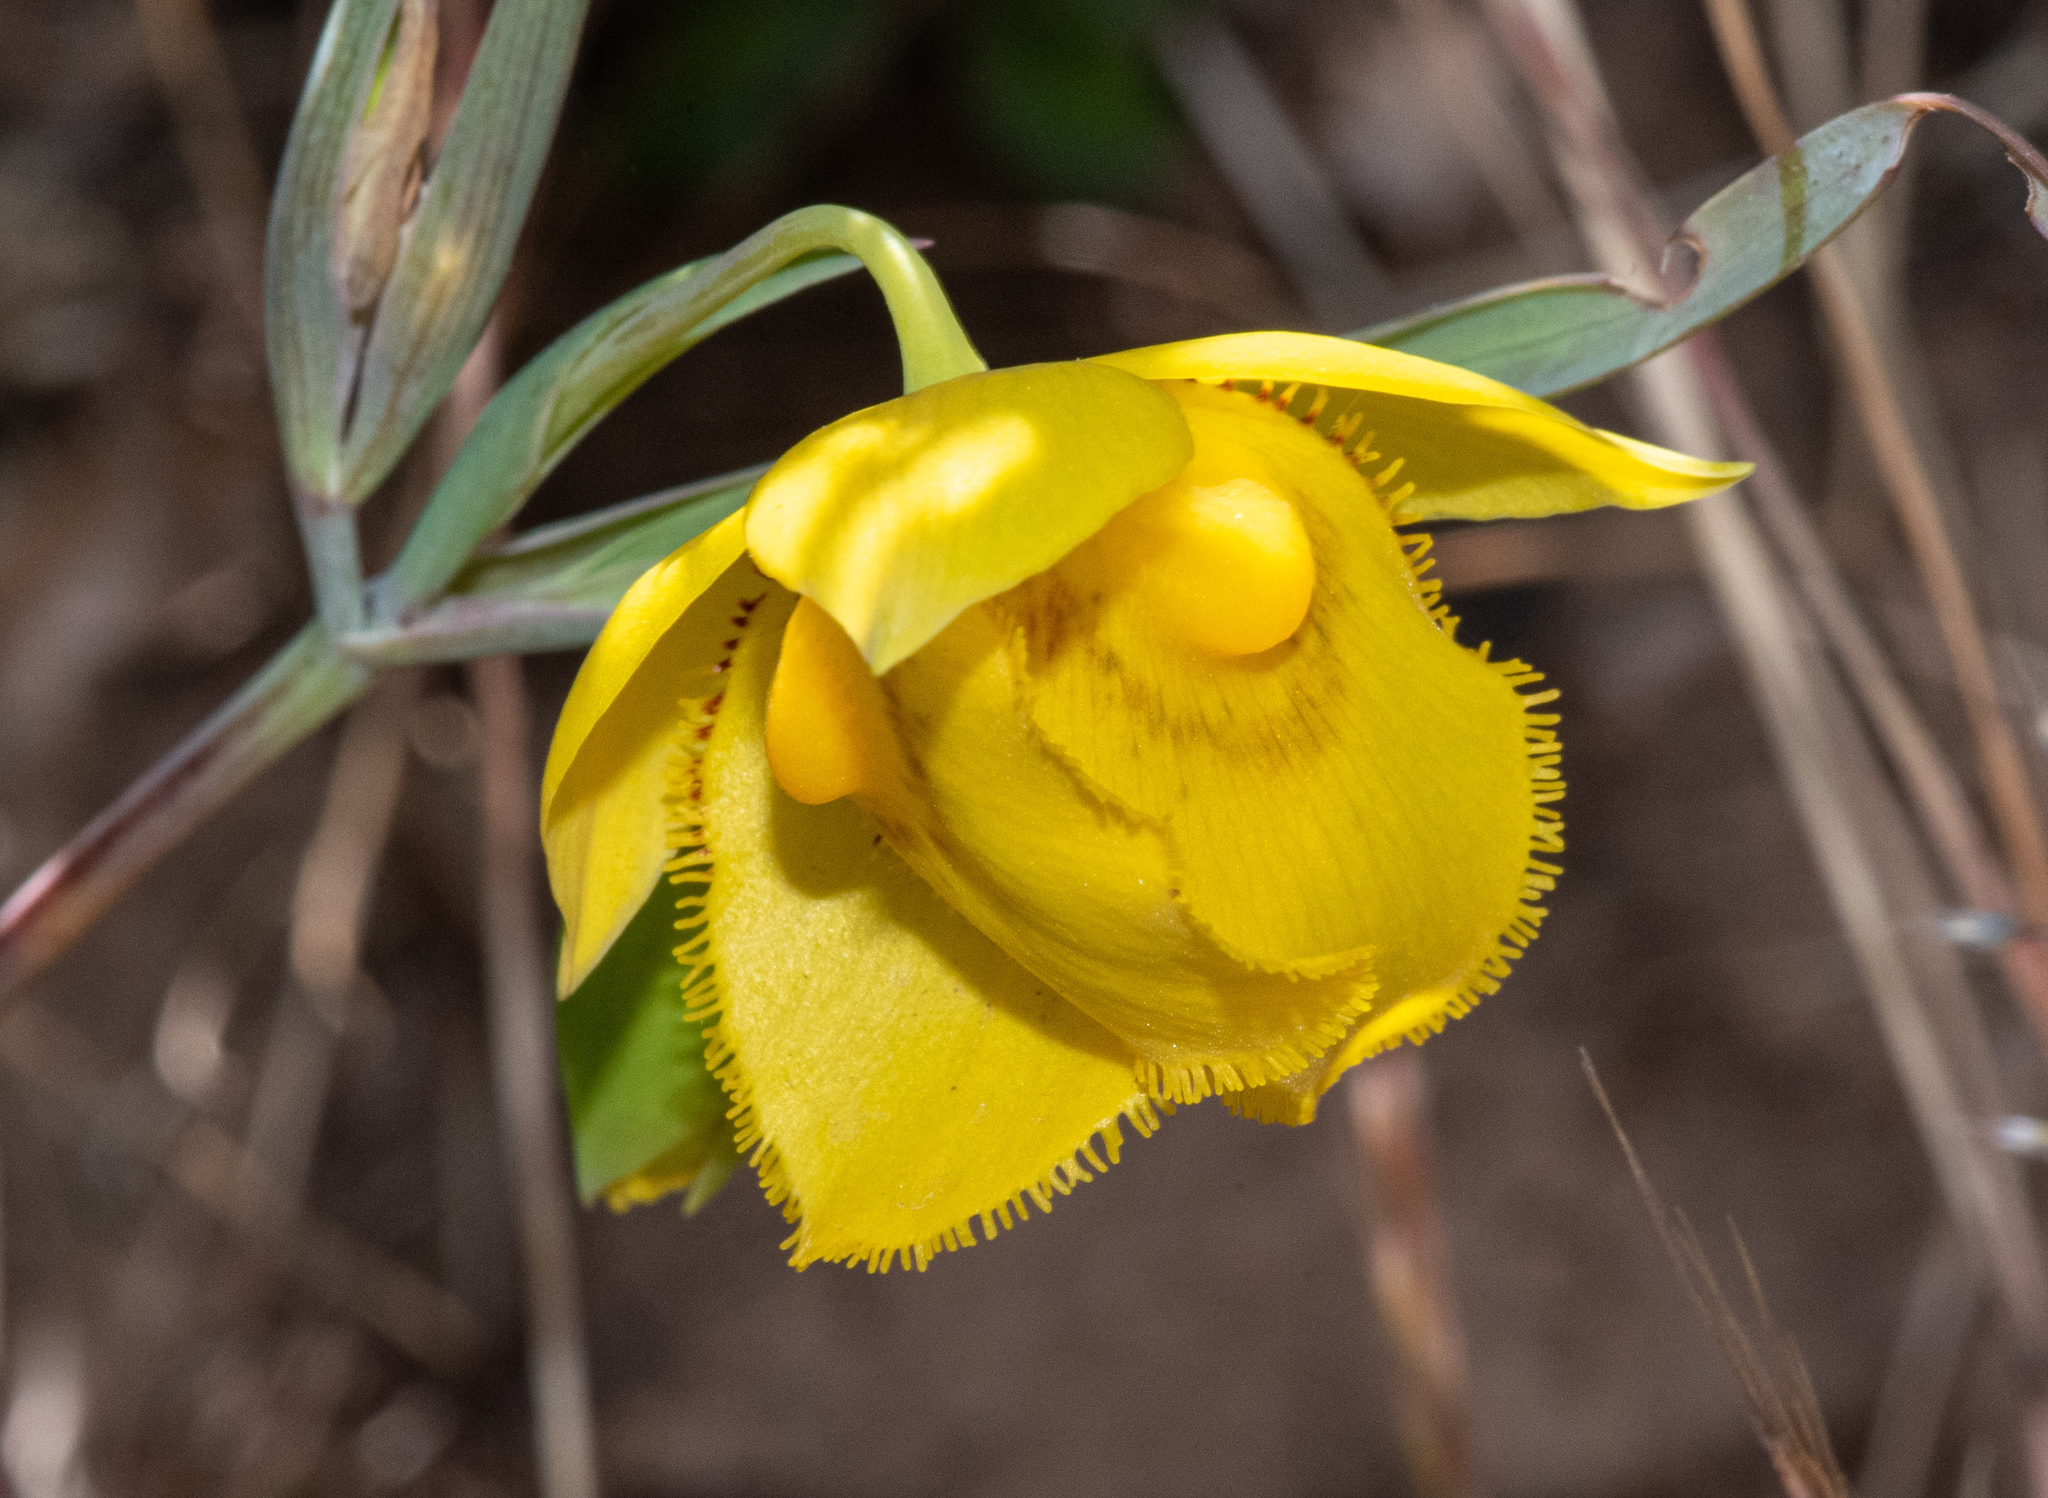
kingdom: Plantae
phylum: Tracheophyta
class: Liliopsida
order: Liliales
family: Liliaceae
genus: Calochortus
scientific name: Calochortus amabilis
